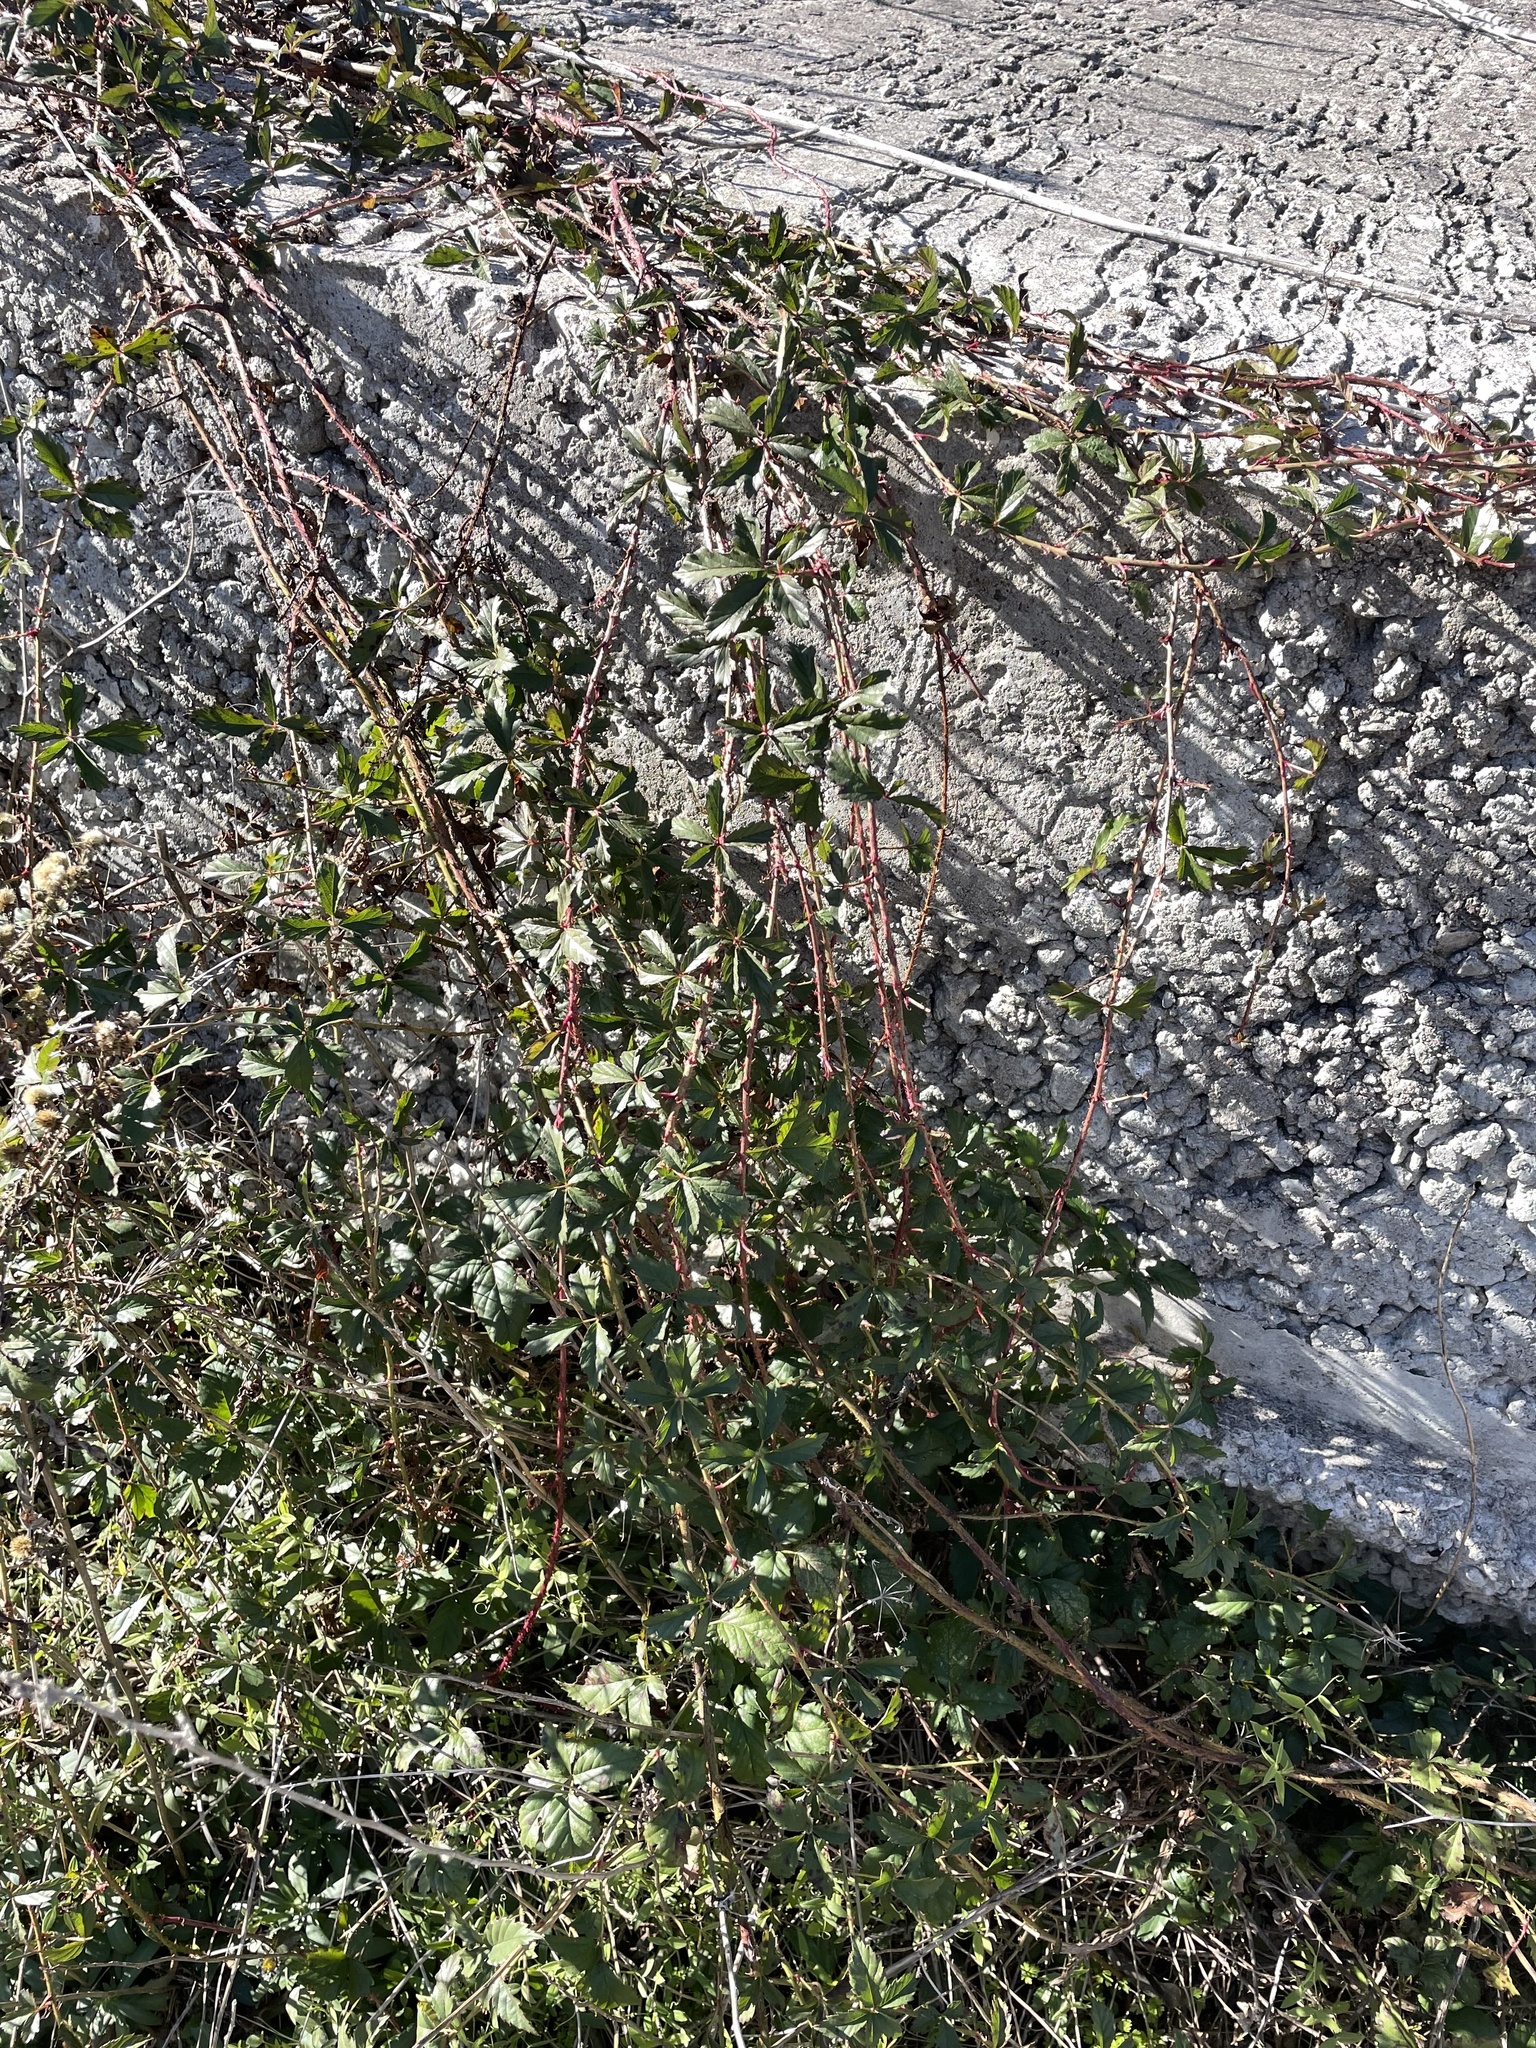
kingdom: Plantae
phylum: Tracheophyta
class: Magnoliopsida
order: Rosales
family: Rosaceae
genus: Rubus
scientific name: Rubus trivialis
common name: Southern dewberry
